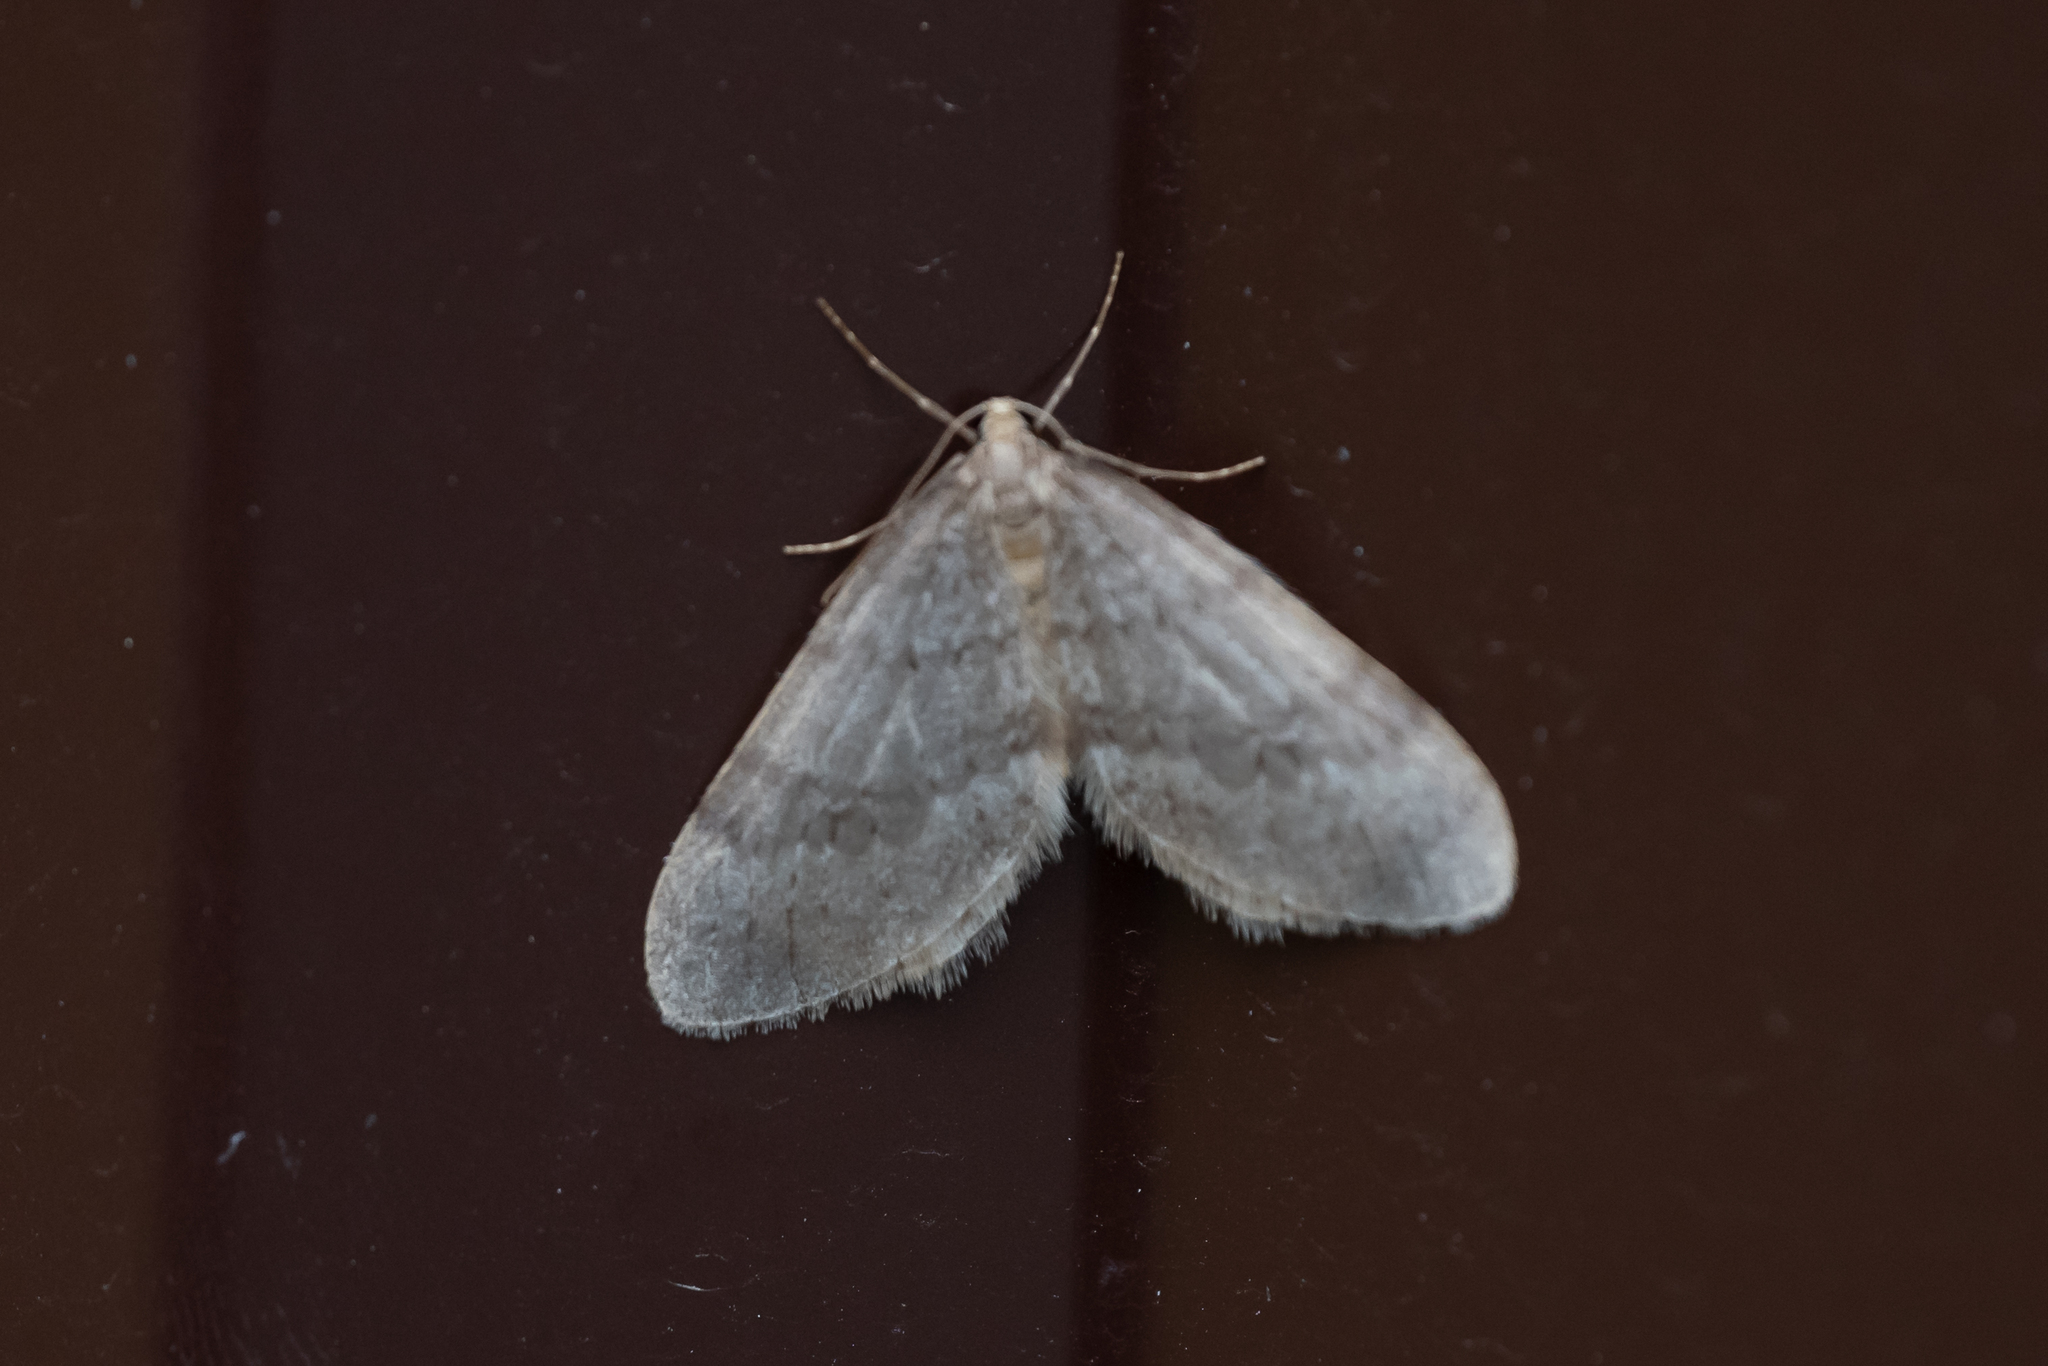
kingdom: Animalia
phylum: Arthropoda
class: Insecta
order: Lepidoptera
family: Geometridae
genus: Operophtera
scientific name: Operophtera fagata
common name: Northern winter moth
